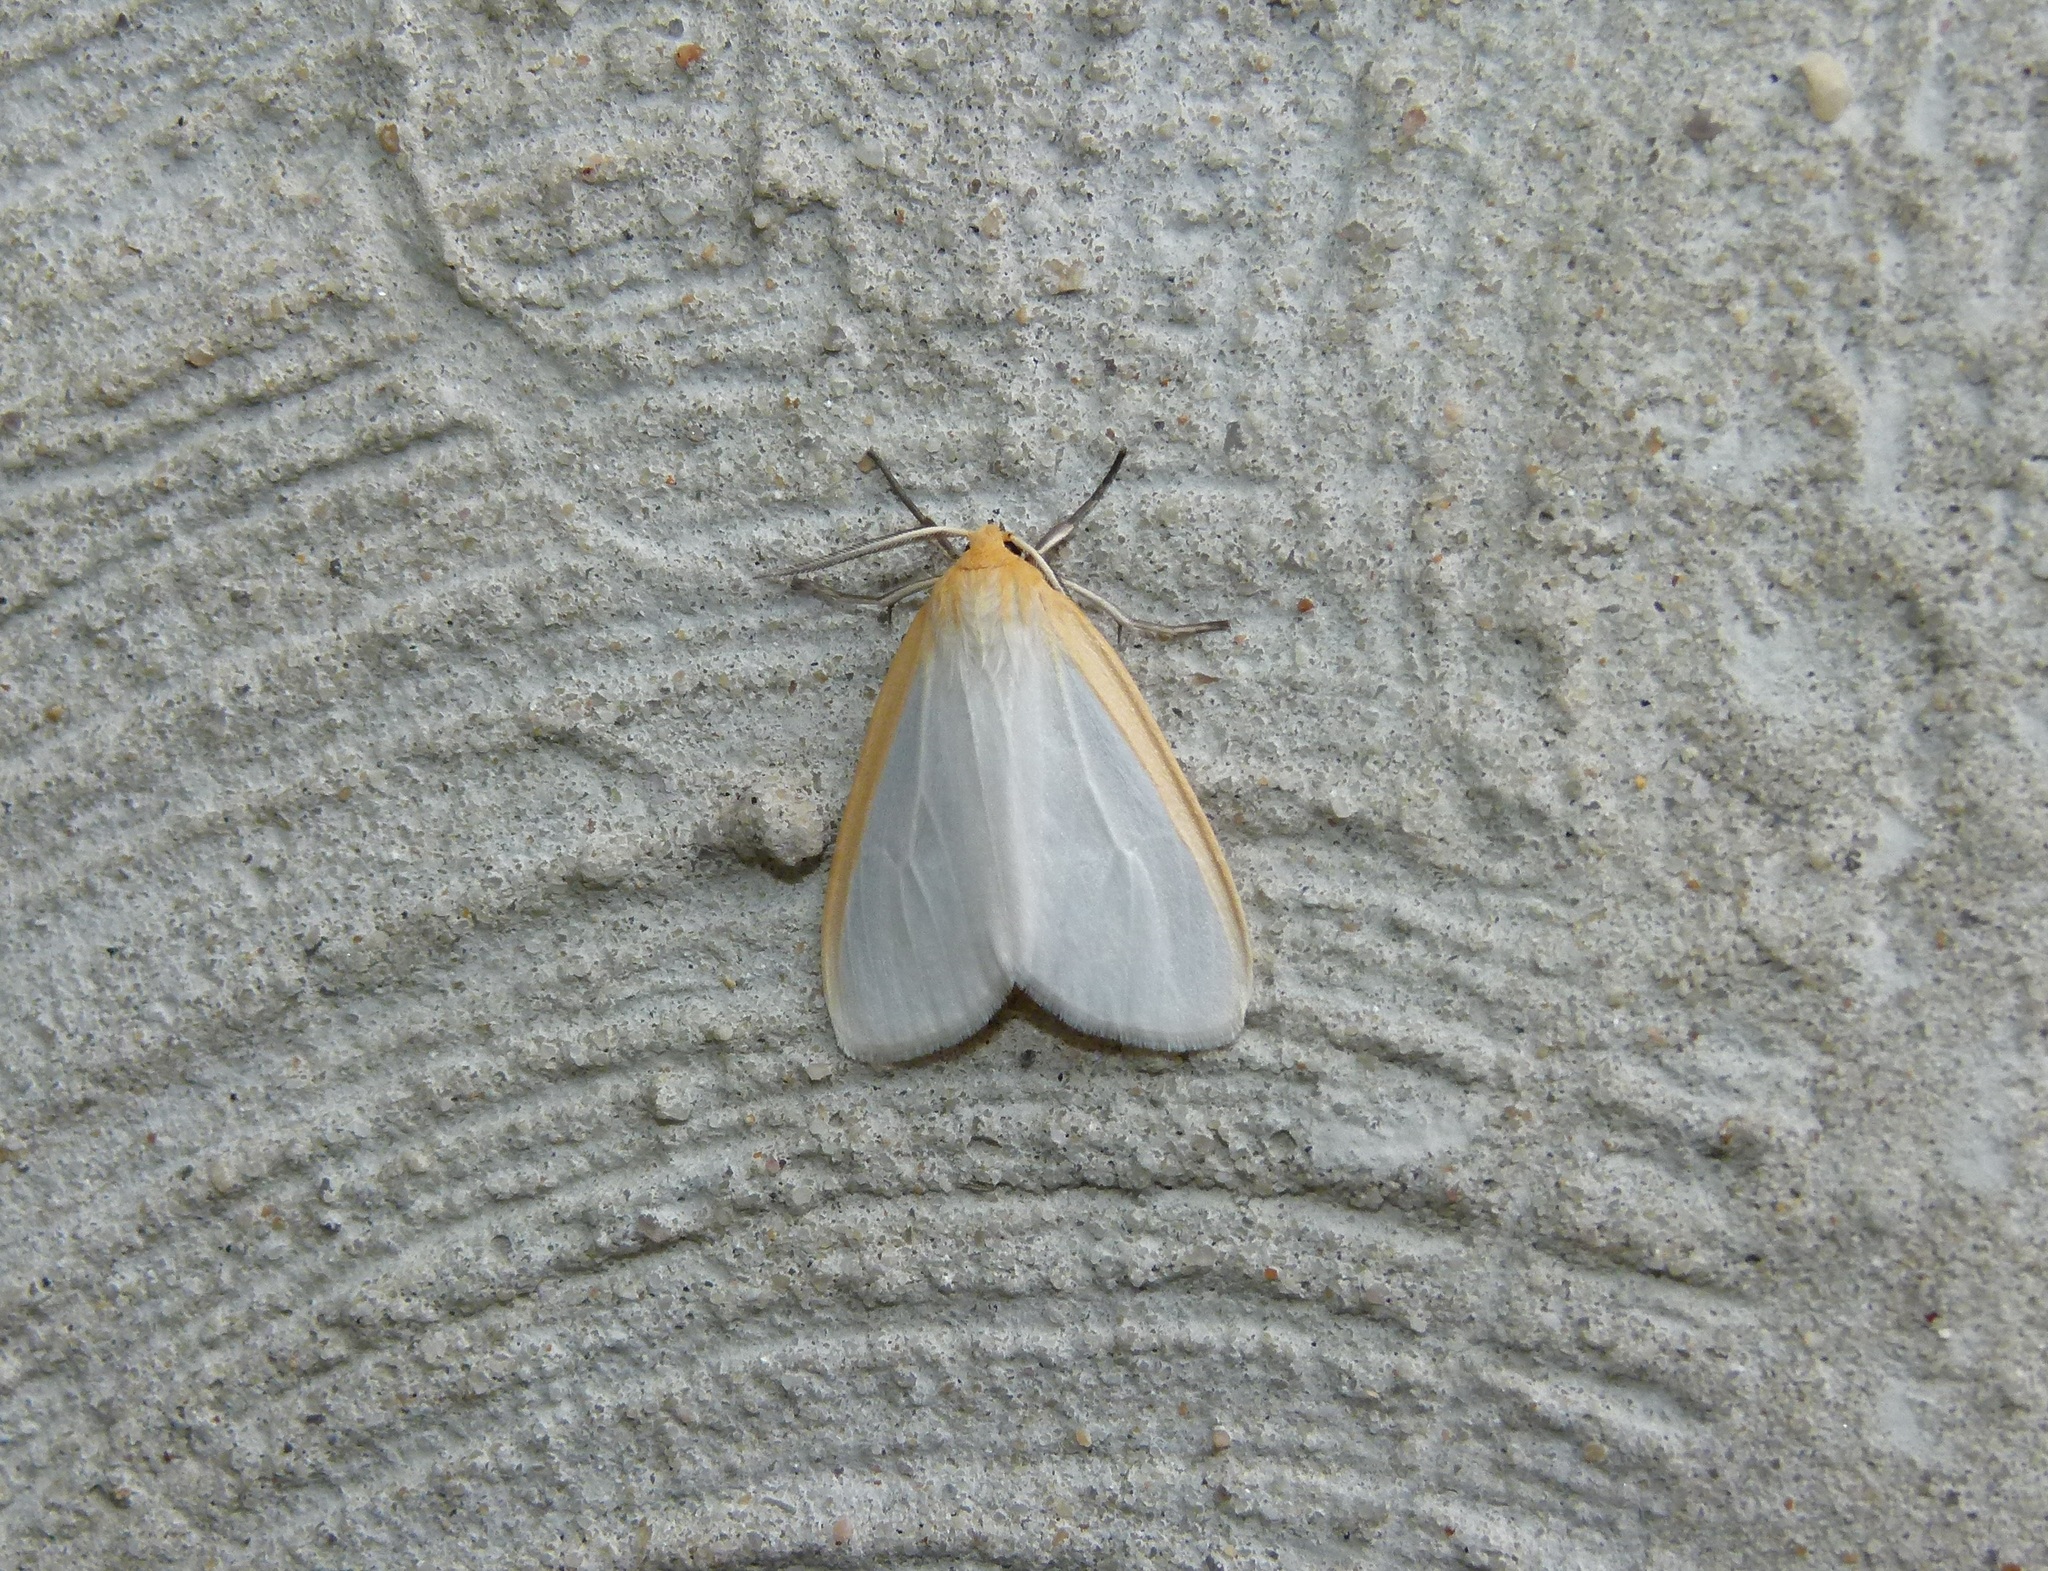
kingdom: Animalia
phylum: Arthropoda
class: Insecta
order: Lepidoptera
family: Erebidae
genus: Cycnia
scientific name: Cycnia tenera
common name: Delicate cycnia moth
